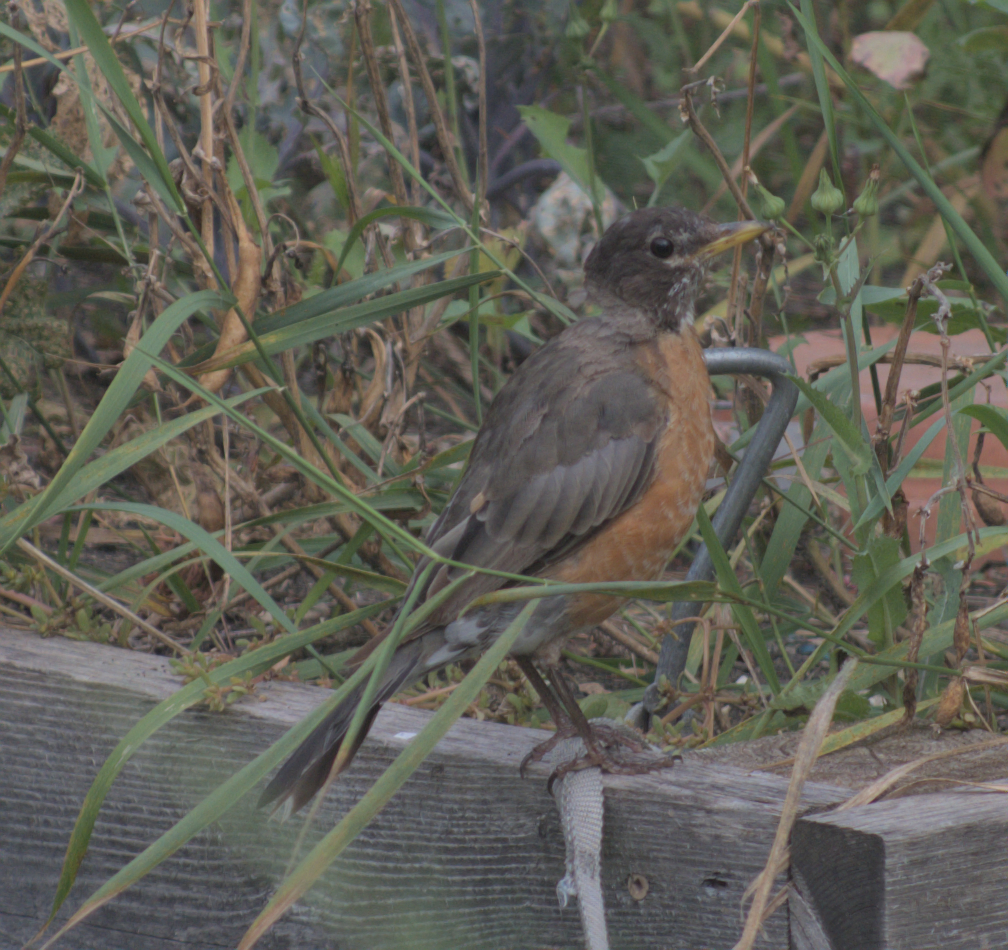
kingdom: Animalia
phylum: Chordata
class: Aves
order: Passeriformes
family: Turdidae
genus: Turdus
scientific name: Turdus migratorius
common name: American robin
